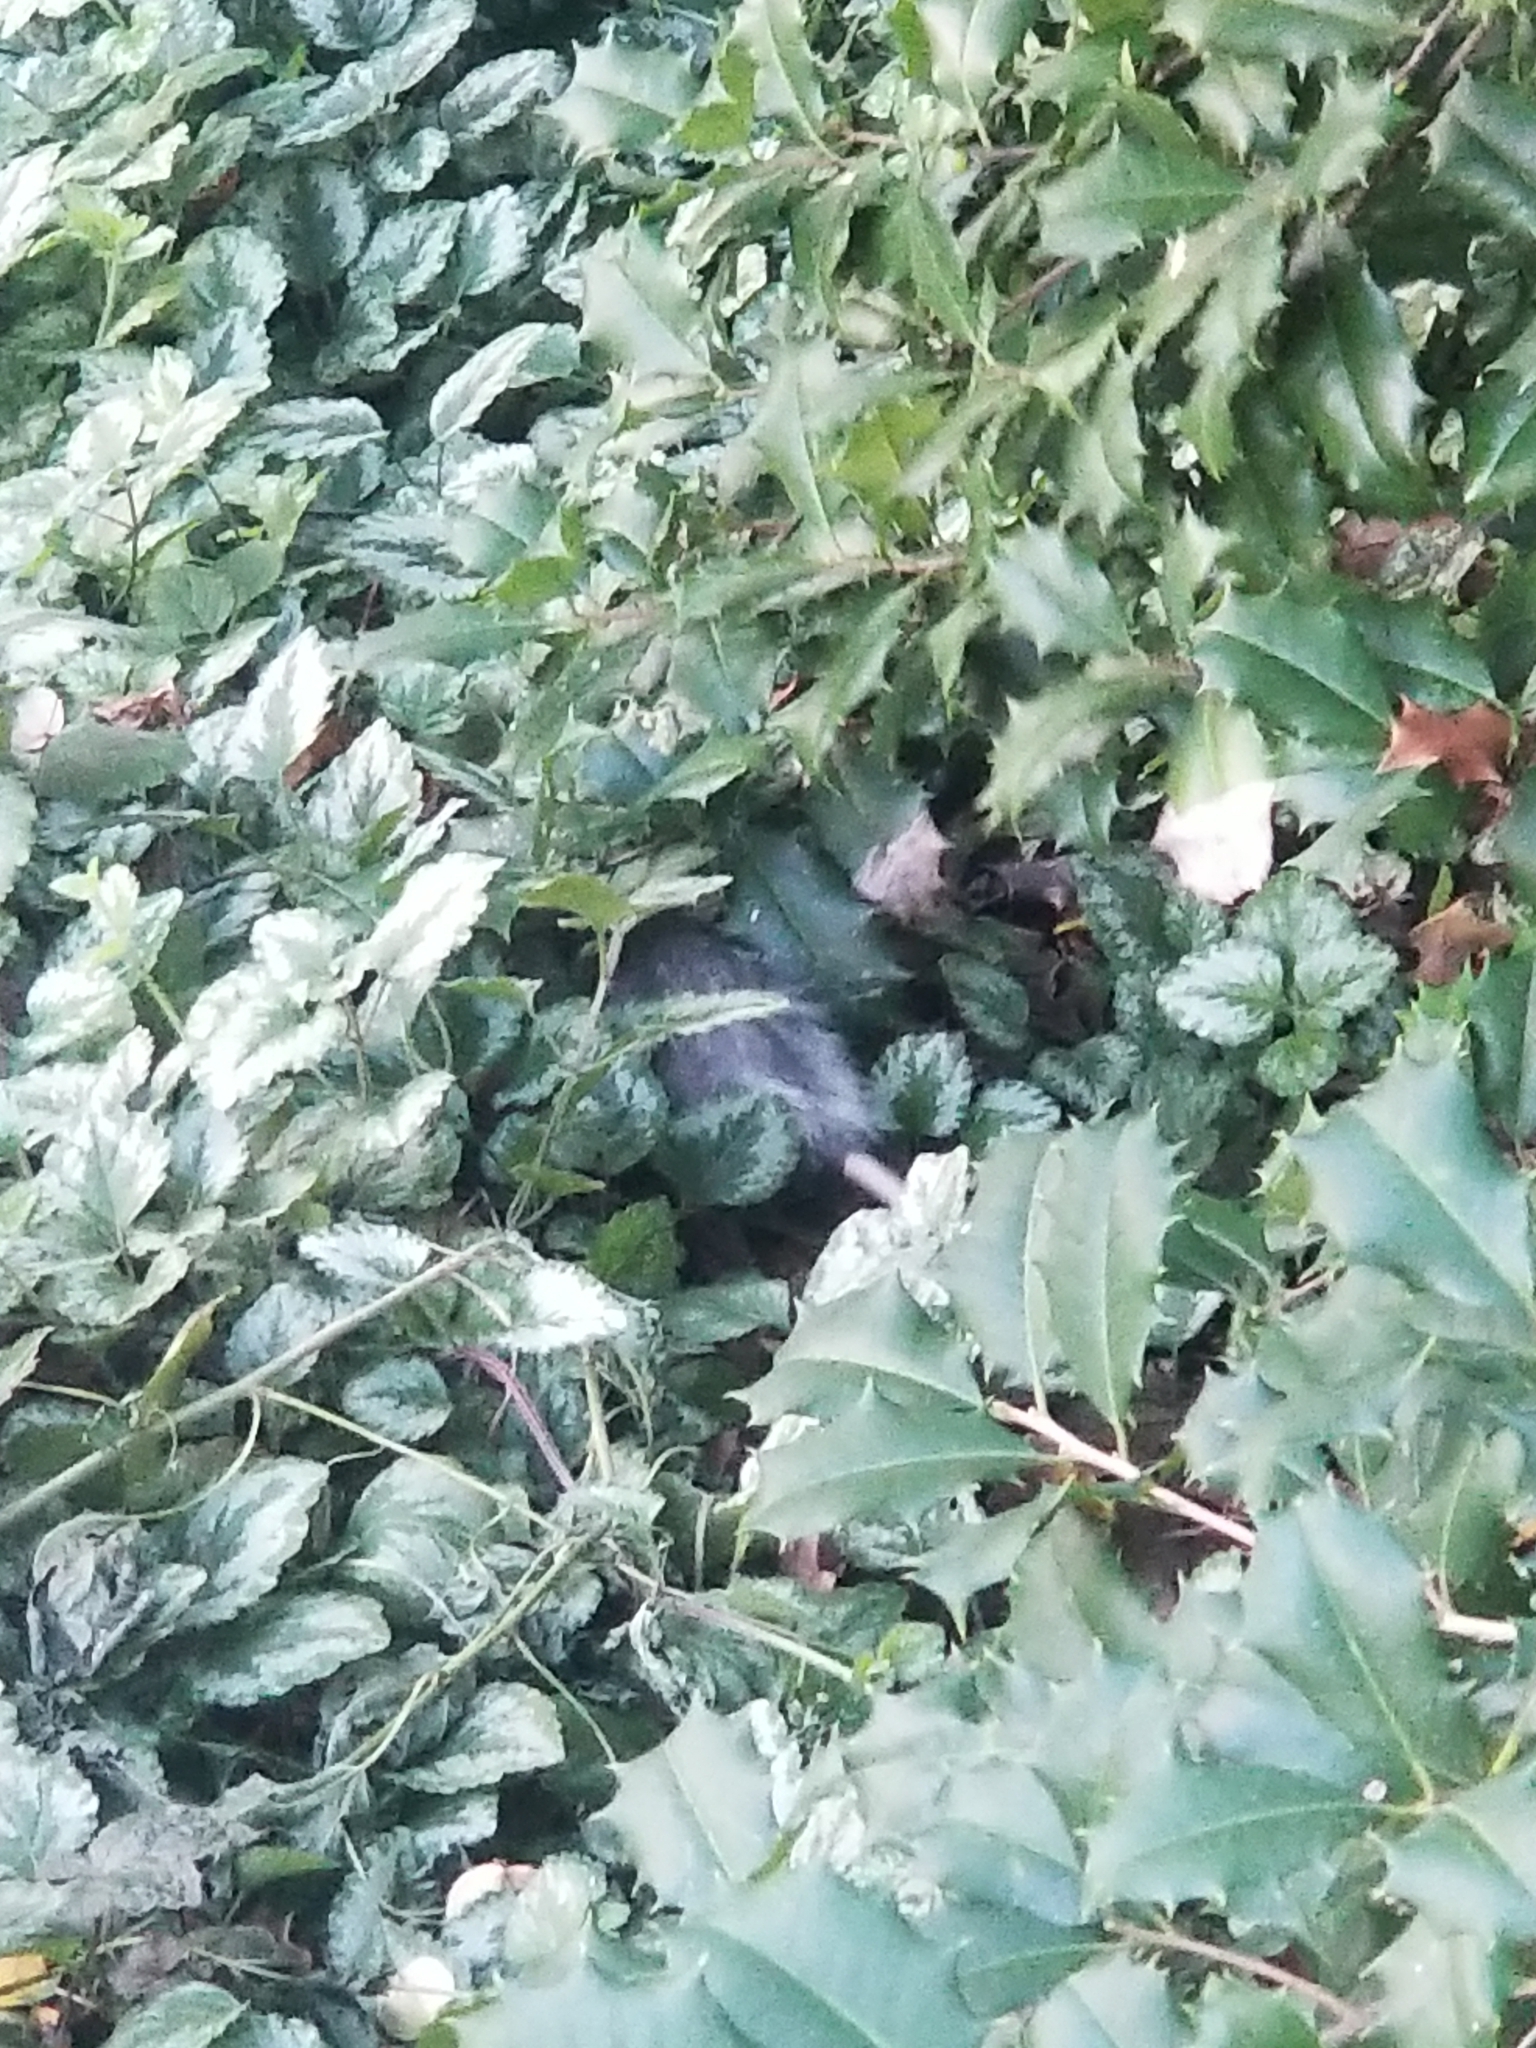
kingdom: Animalia
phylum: Chordata
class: Mammalia
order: Didelphimorphia
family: Didelphidae
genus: Didelphis
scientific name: Didelphis virginiana
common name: Virginia opossum
